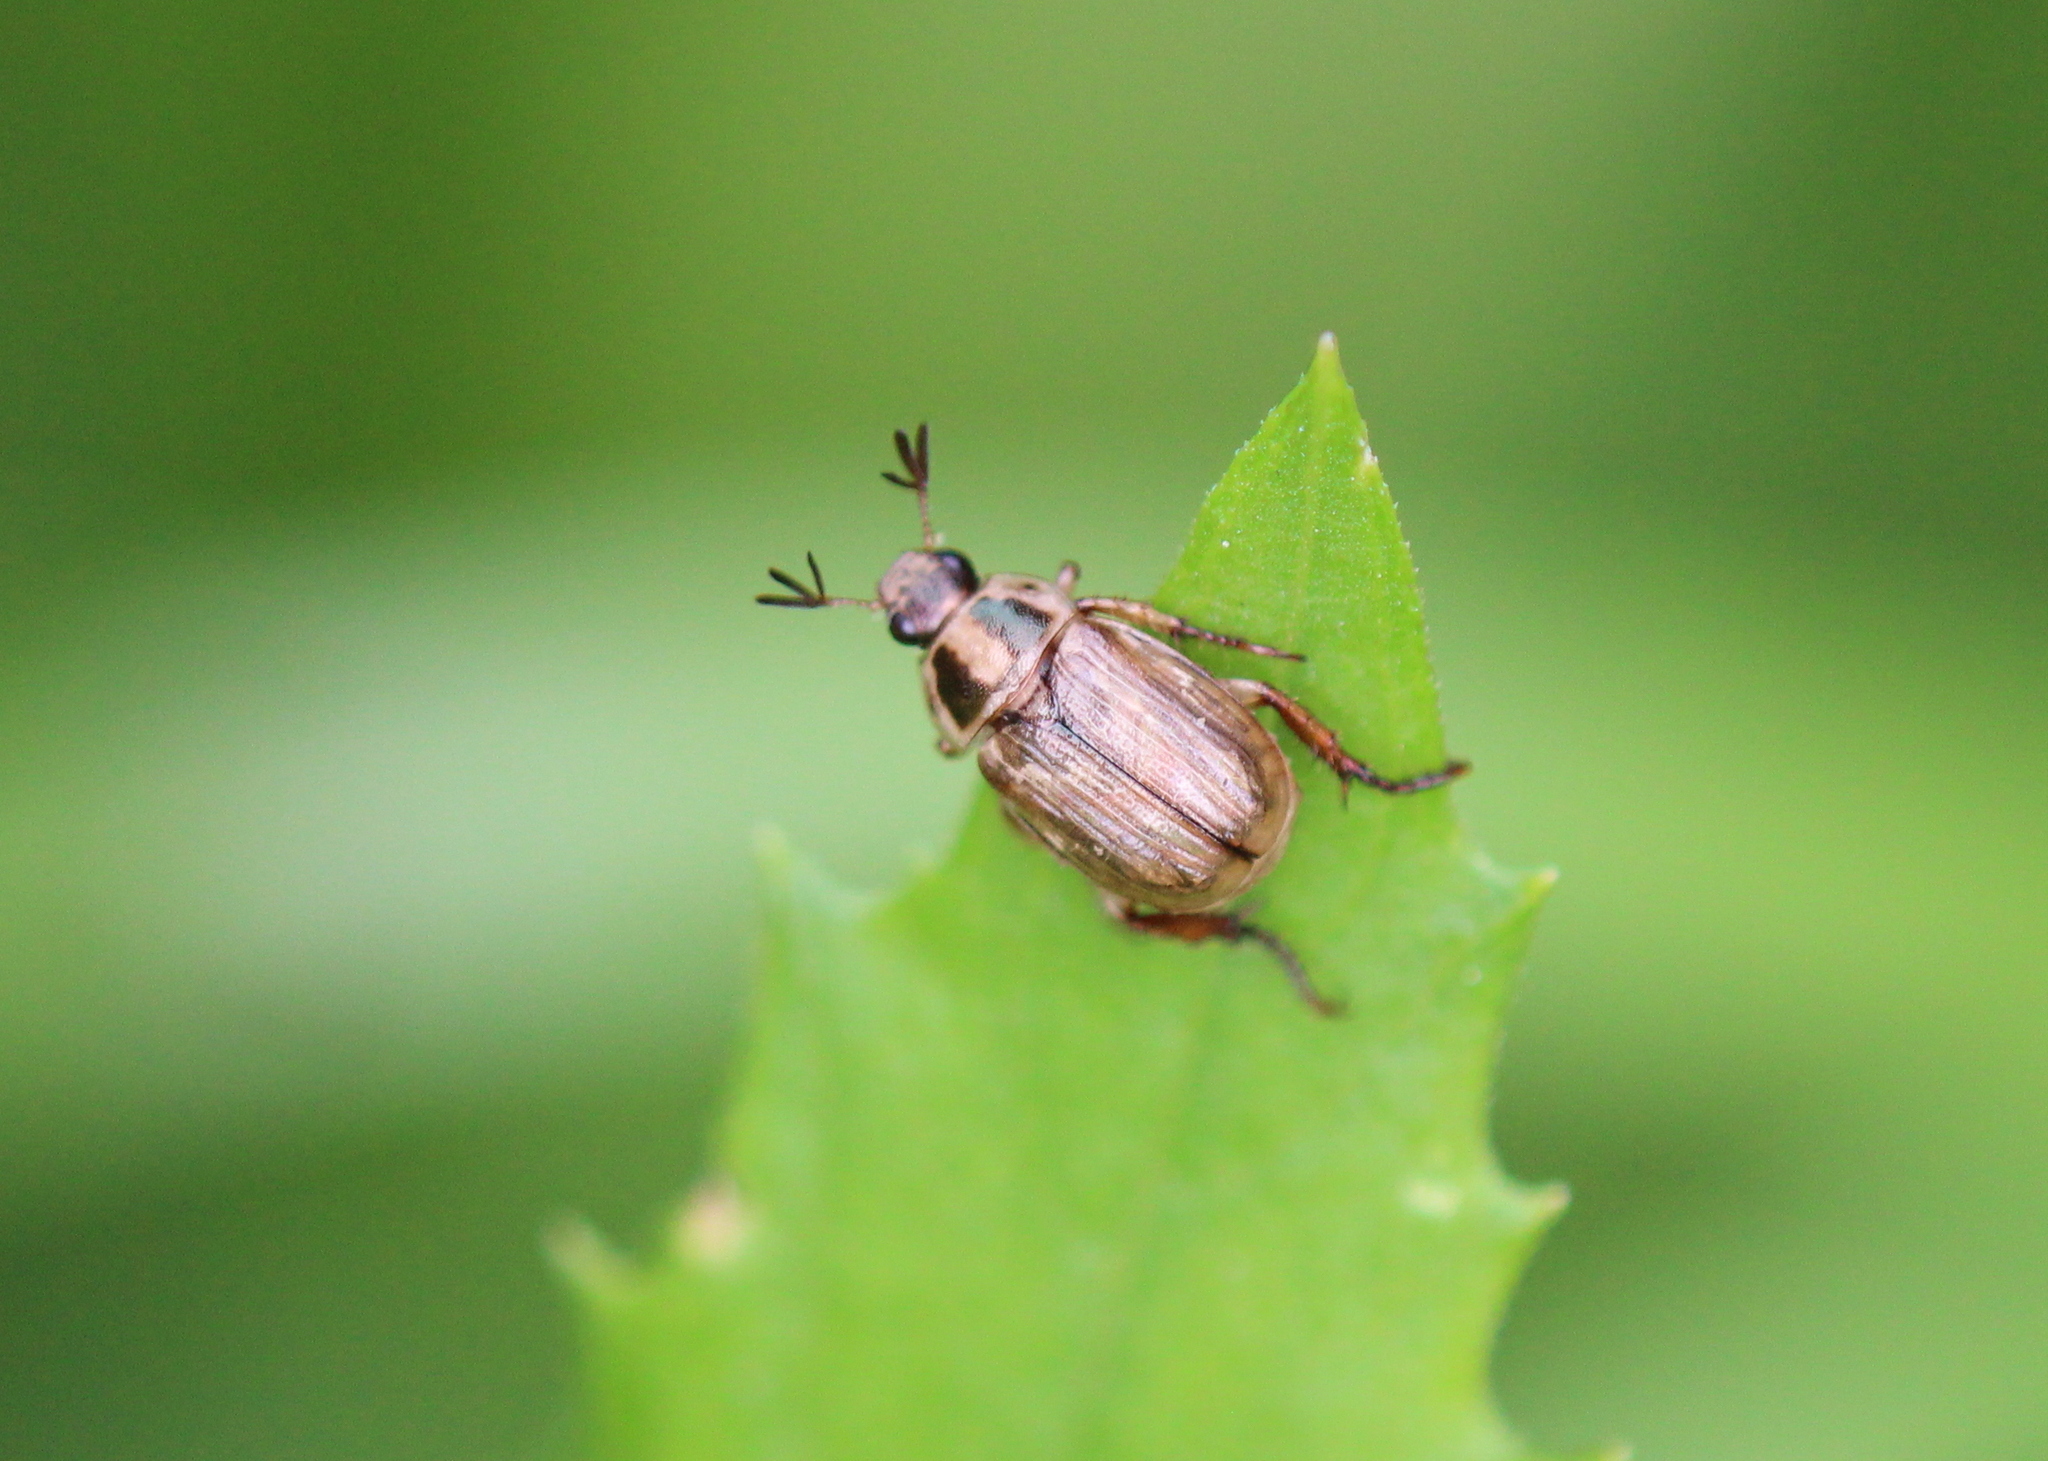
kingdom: Animalia
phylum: Arthropoda
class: Insecta
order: Coleoptera
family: Scarabaeidae
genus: Exomala
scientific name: Exomala orientalis
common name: Oriental beetle
